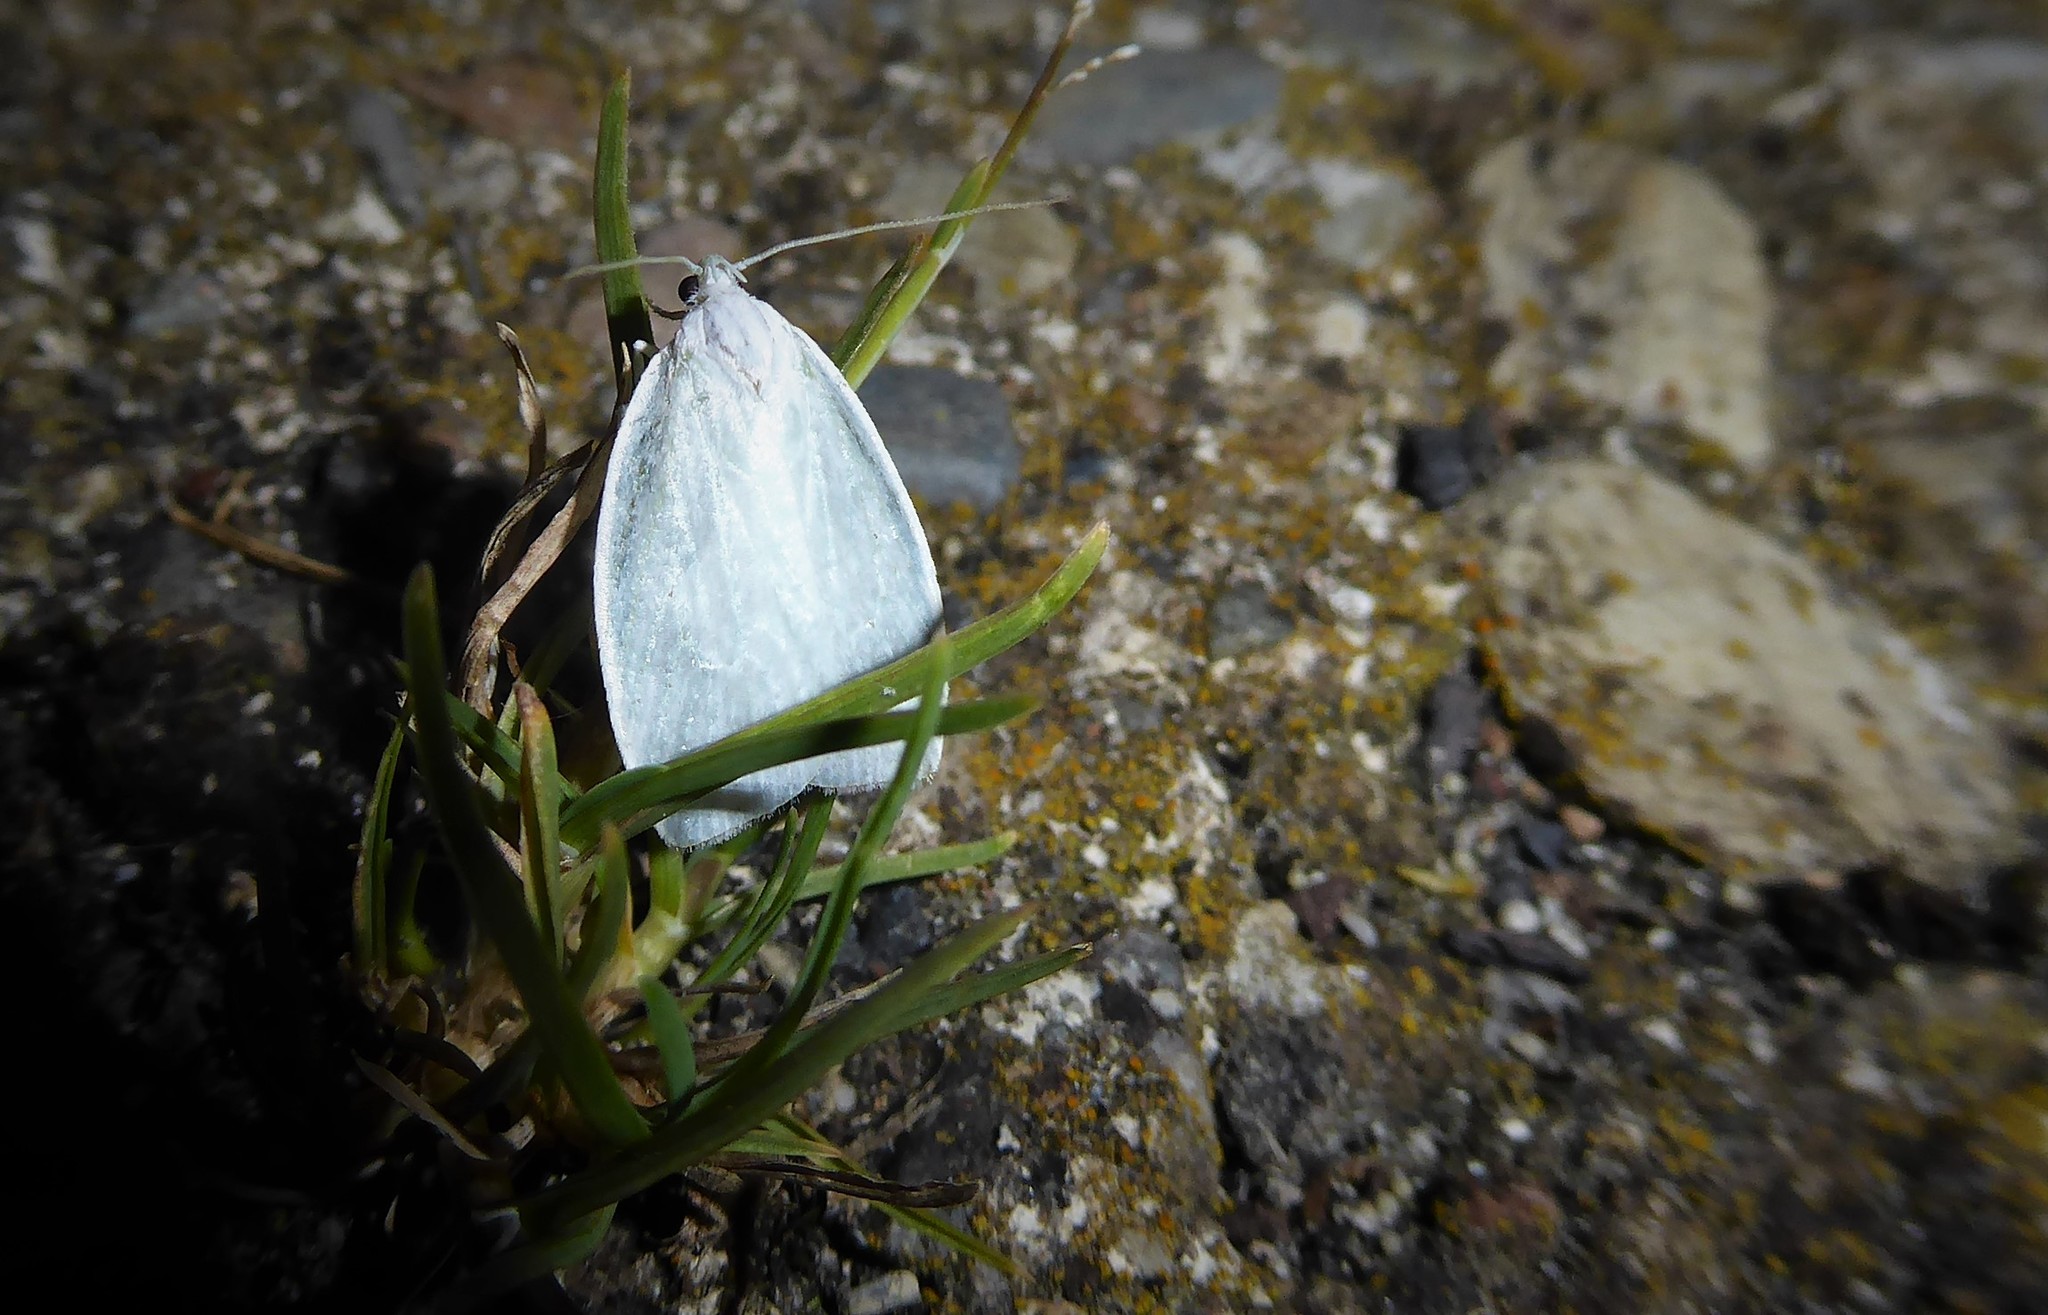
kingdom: Animalia
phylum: Arthropoda
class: Insecta
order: Lepidoptera
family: Oecophoridae
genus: Nymphostola
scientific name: Nymphostola galactina
